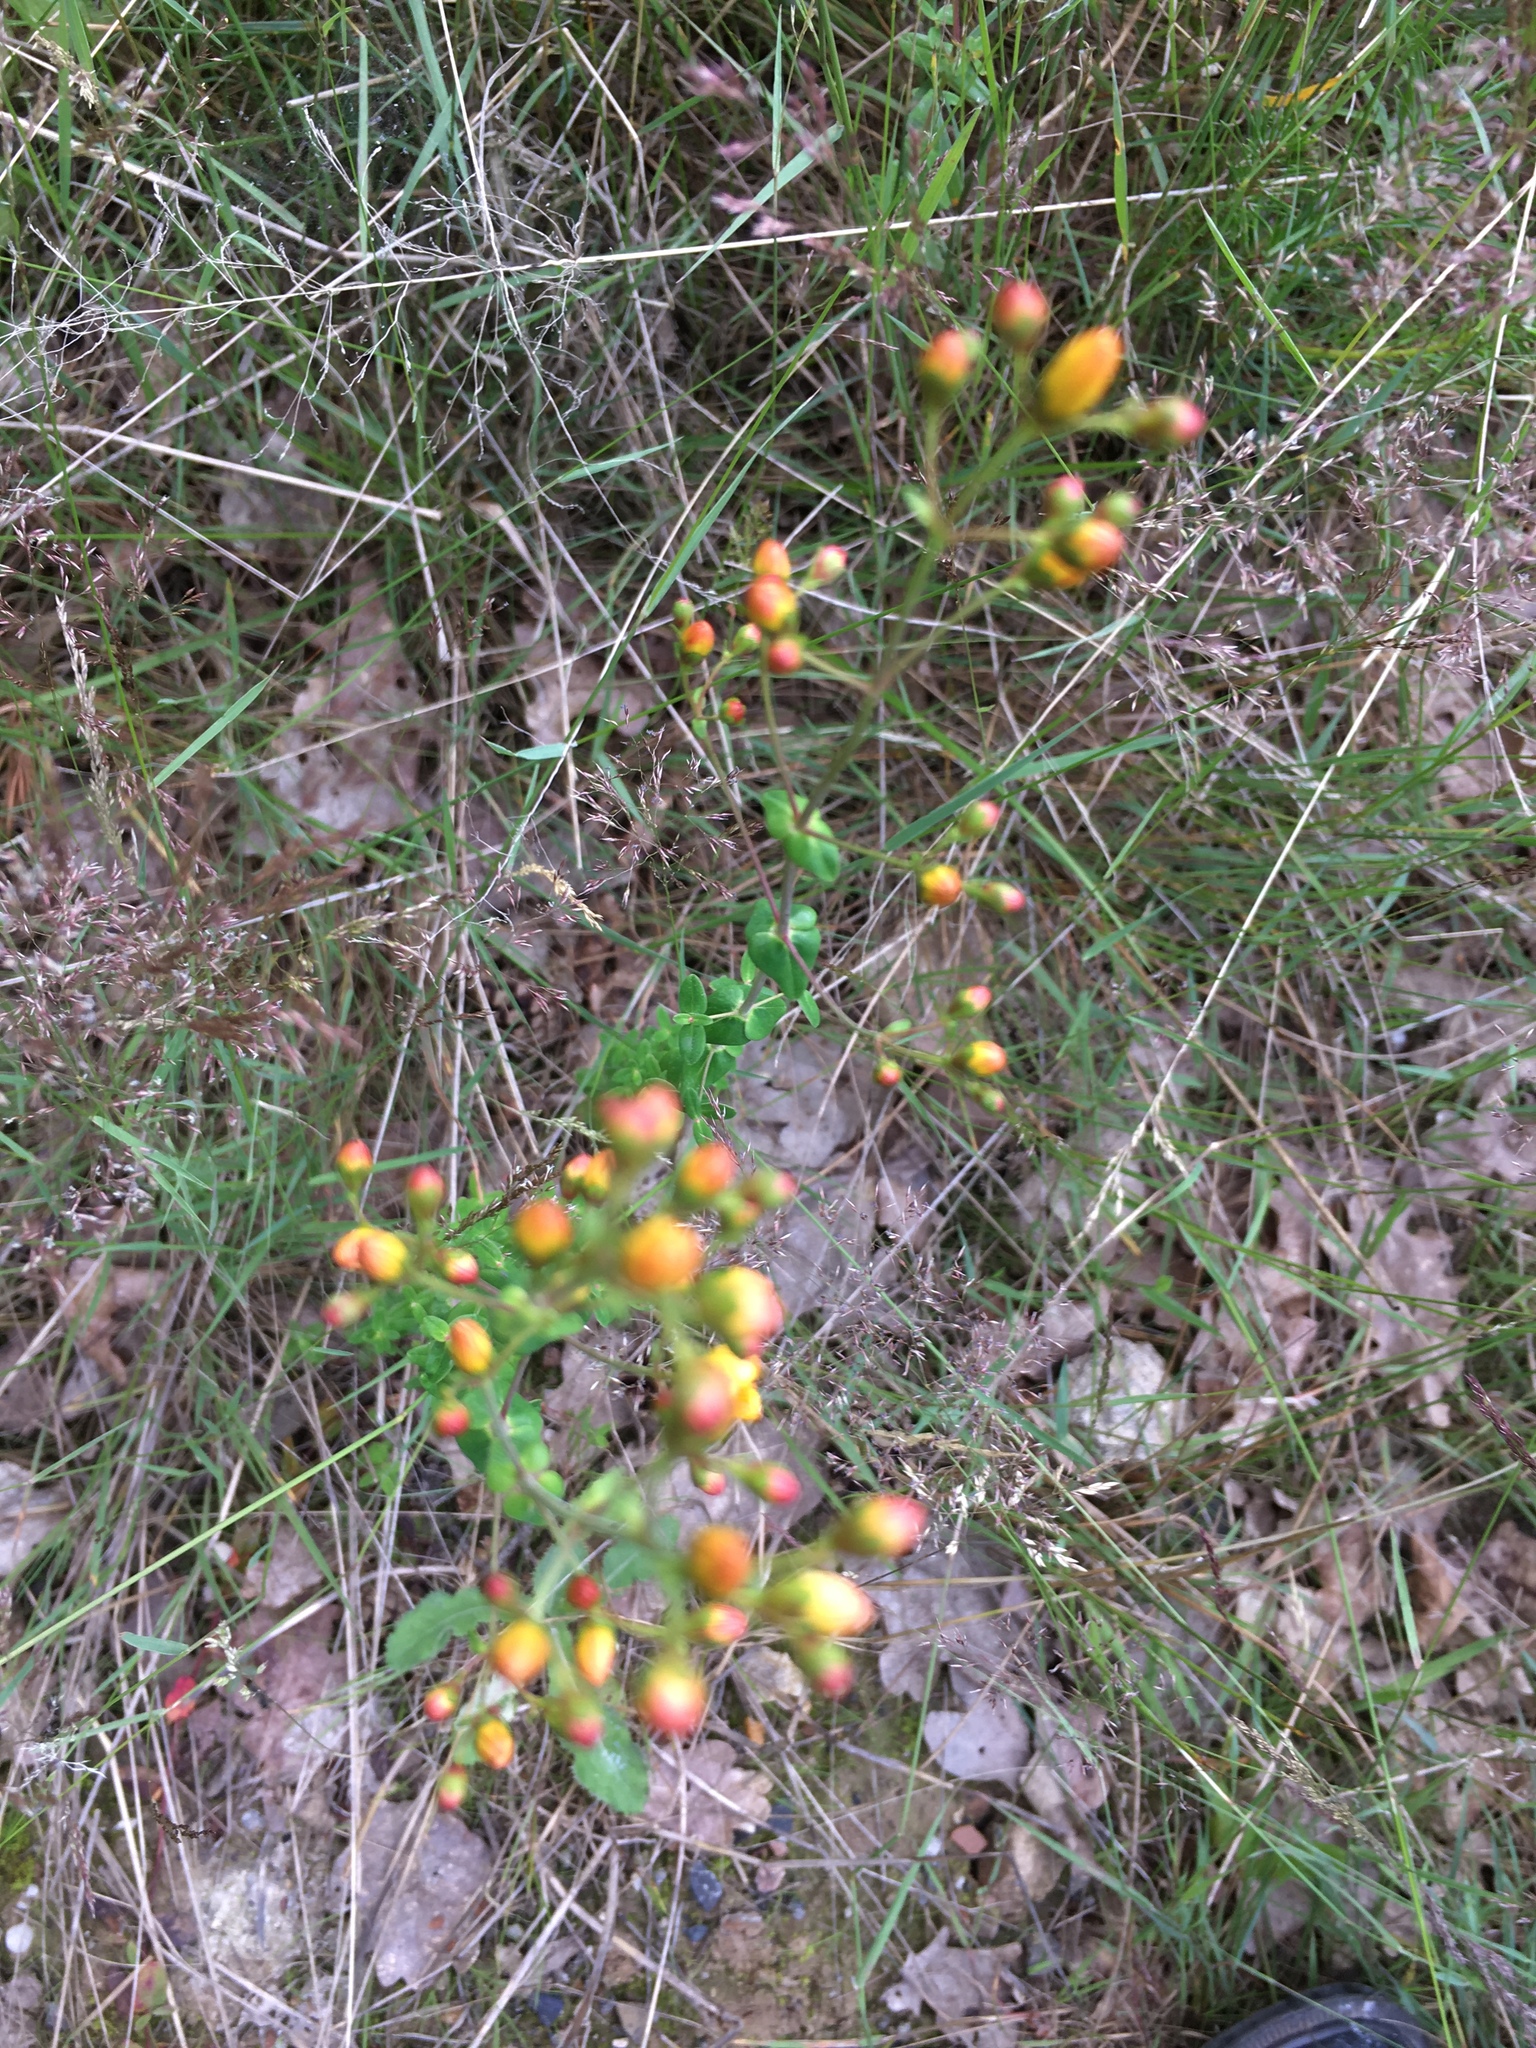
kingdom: Plantae
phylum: Tracheophyta
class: Magnoliopsida
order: Malpighiales
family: Hypericaceae
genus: Hypericum
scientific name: Hypericum pulchrum
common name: Slender st. john's-wort
